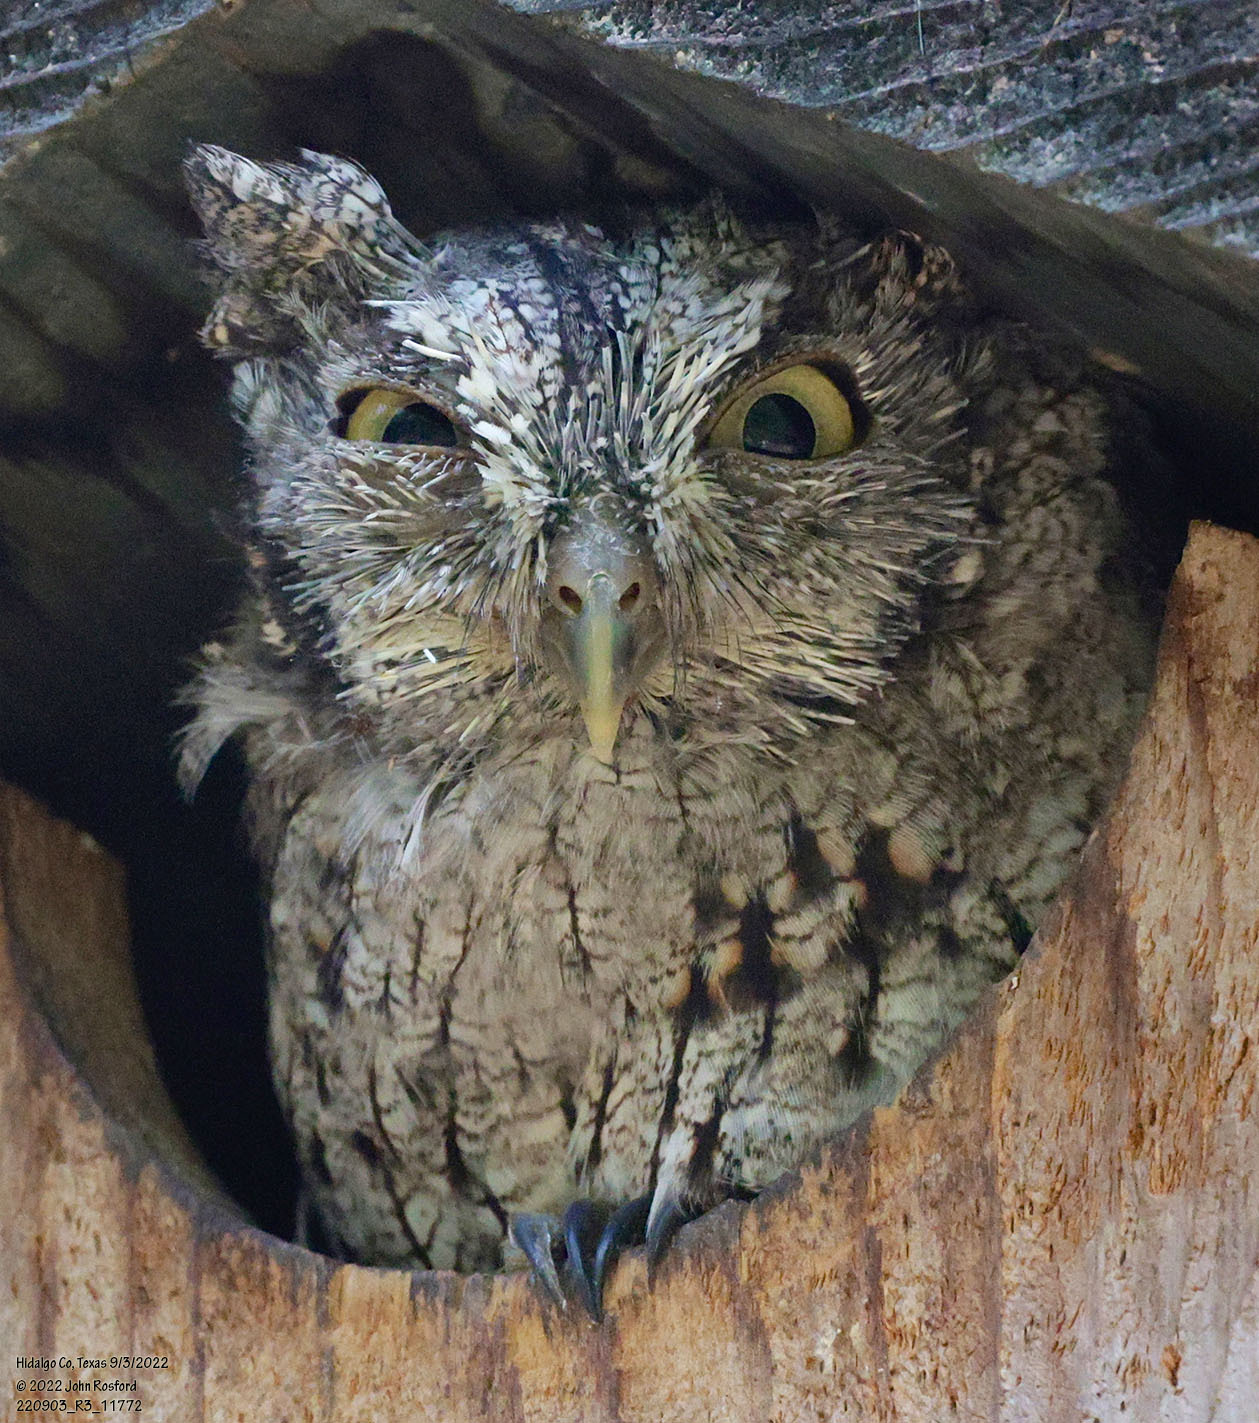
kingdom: Animalia
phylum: Chordata
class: Aves
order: Strigiformes
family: Strigidae
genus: Megascops
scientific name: Megascops asio
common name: Eastern screech-owl
